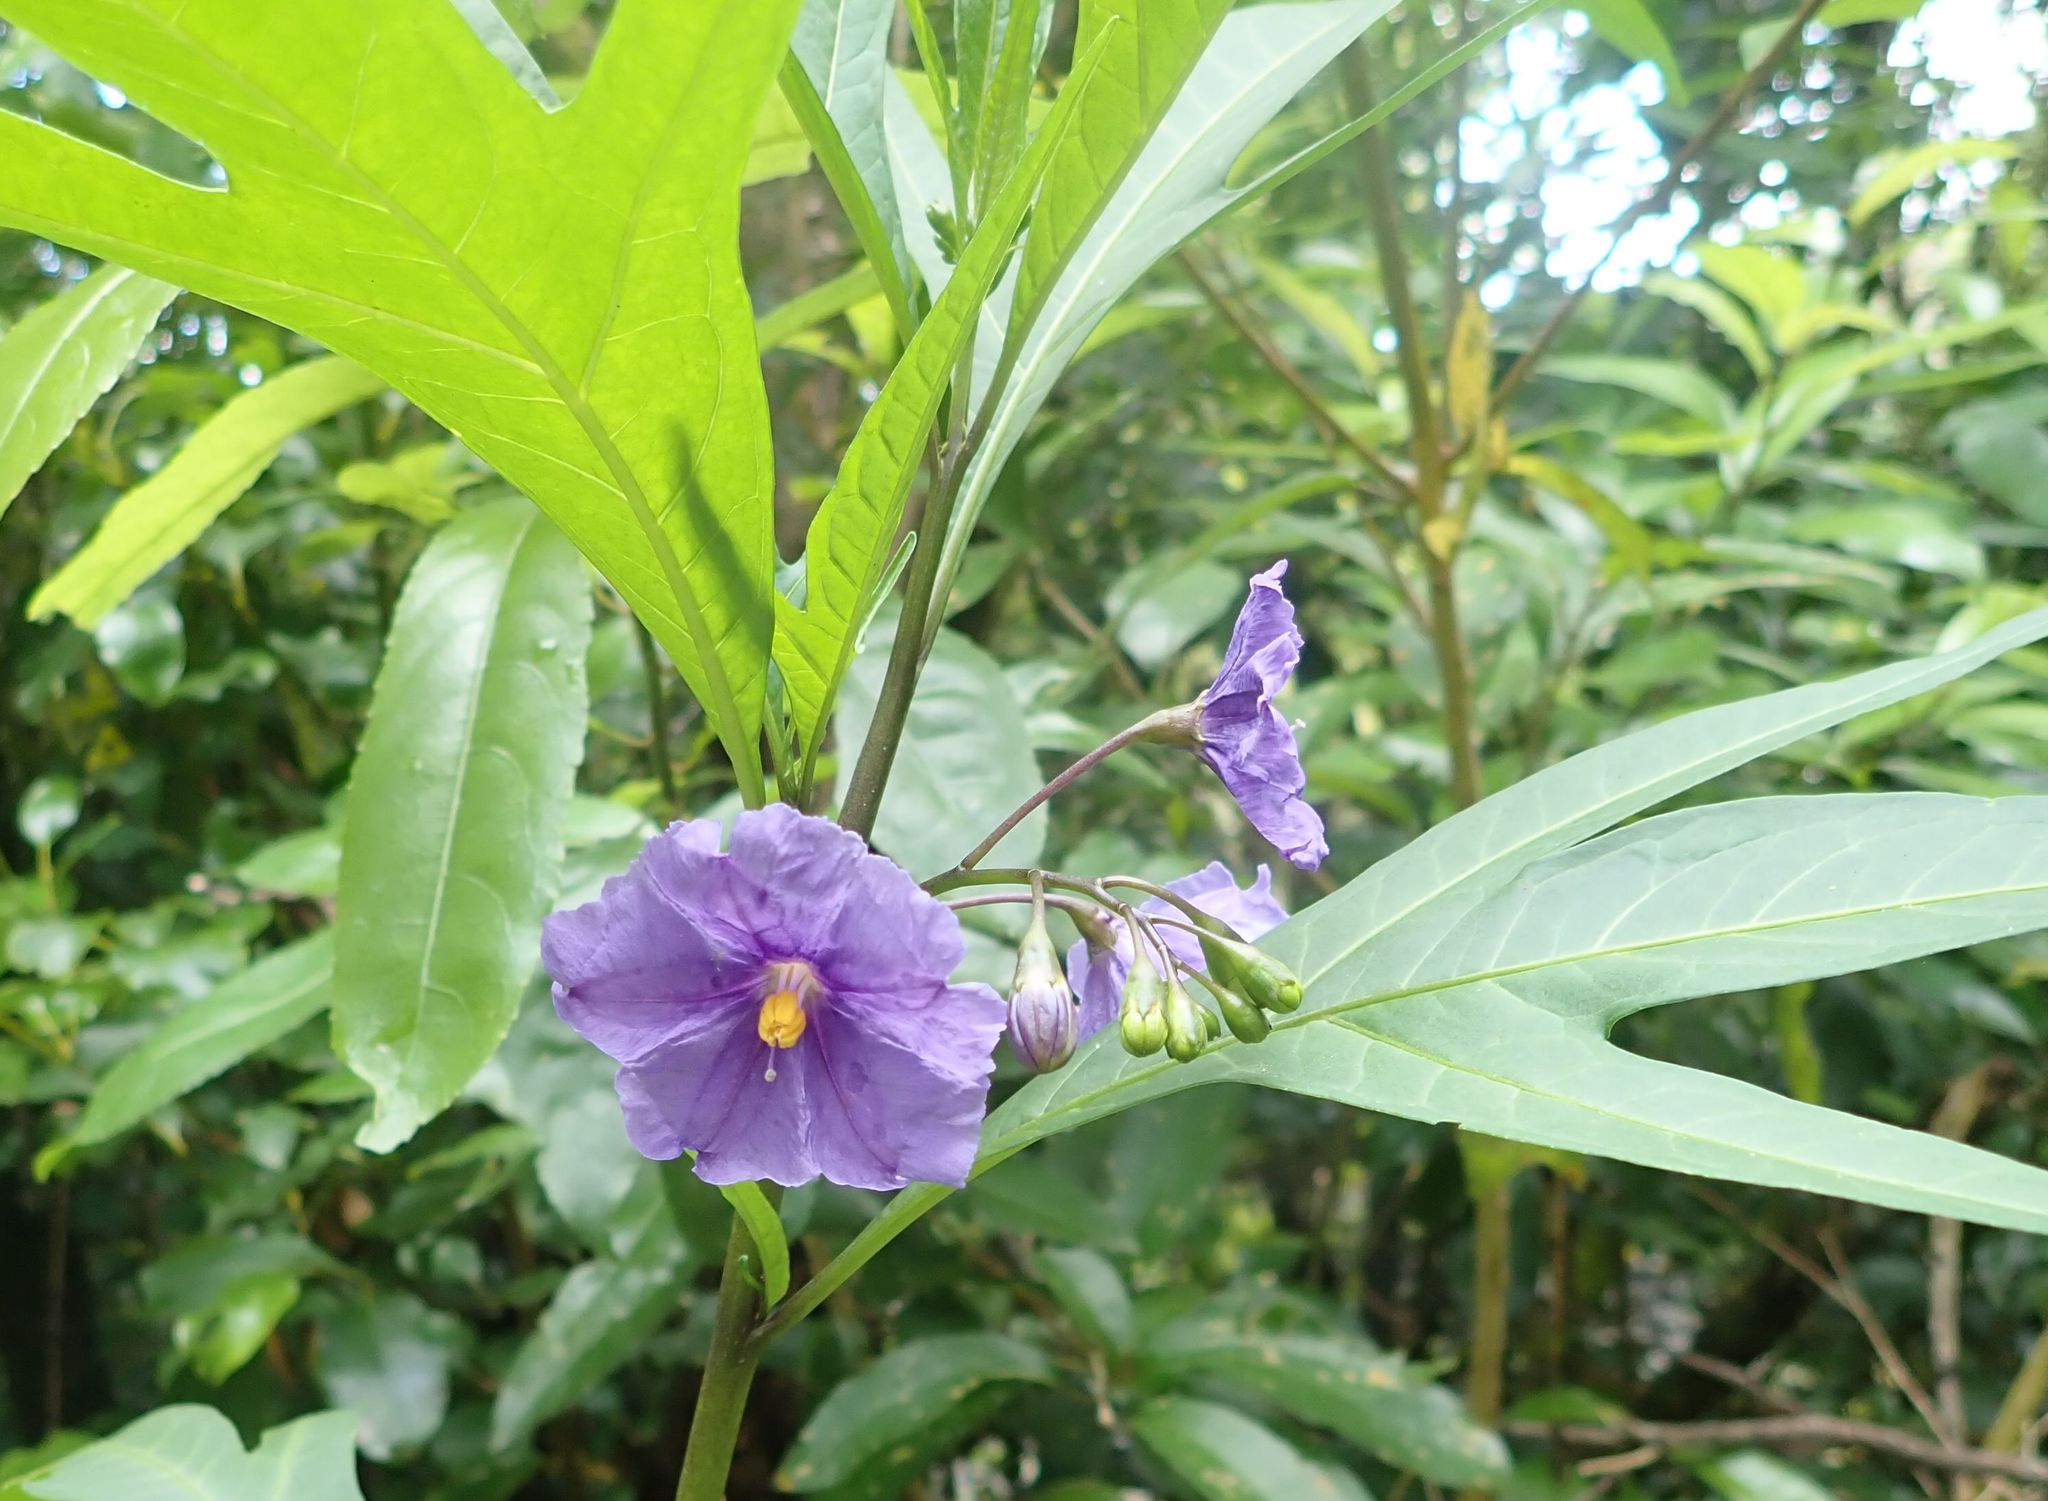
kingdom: Plantae
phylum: Tracheophyta
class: Magnoliopsida
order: Solanales
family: Solanaceae
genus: Solanum
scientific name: Solanum laciniatum
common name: Kangaroo-apple
